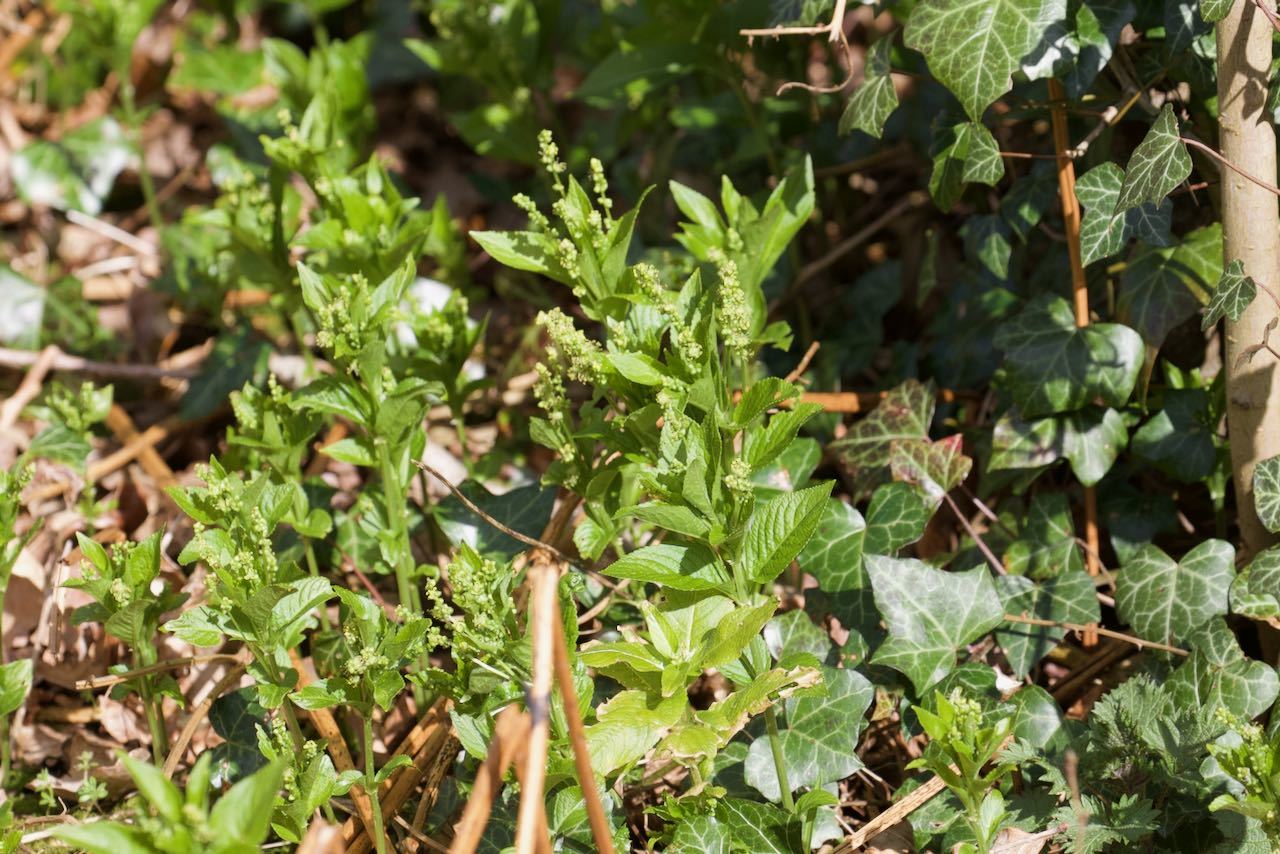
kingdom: Plantae
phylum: Tracheophyta
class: Magnoliopsida
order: Malpighiales
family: Euphorbiaceae
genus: Mercurialis
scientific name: Mercurialis perennis
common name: Dog mercury
